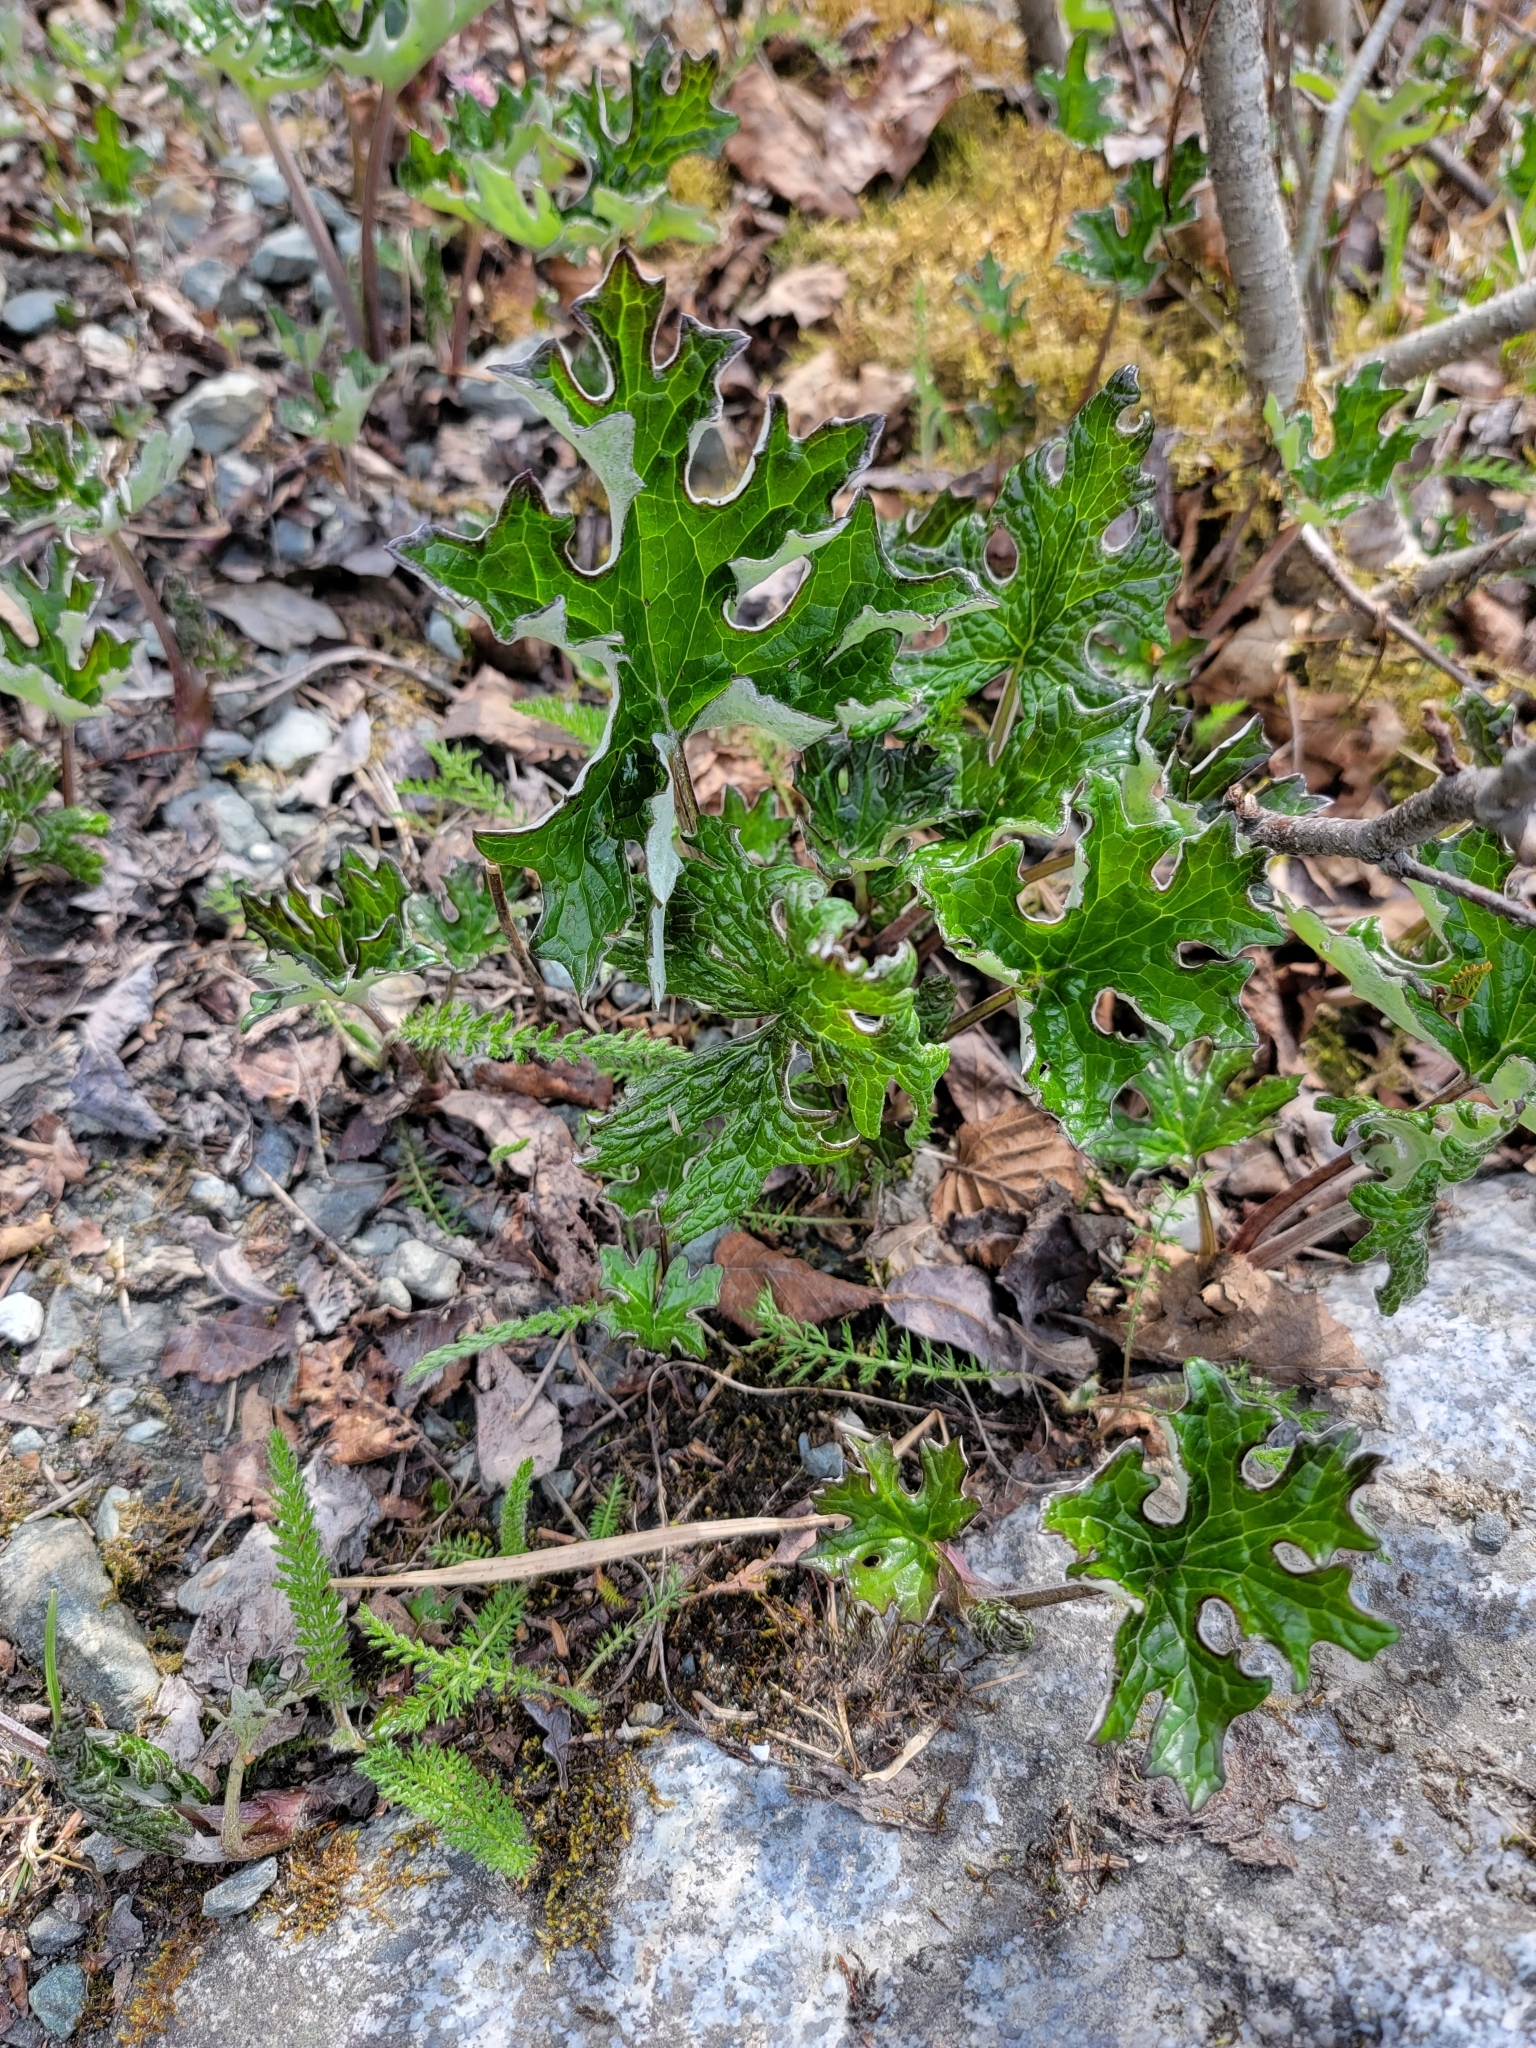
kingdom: Plantae
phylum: Tracheophyta
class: Magnoliopsida
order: Asterales
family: Asteraceae
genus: Petasites
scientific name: Petasites frigidus
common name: Arctic butterbur
